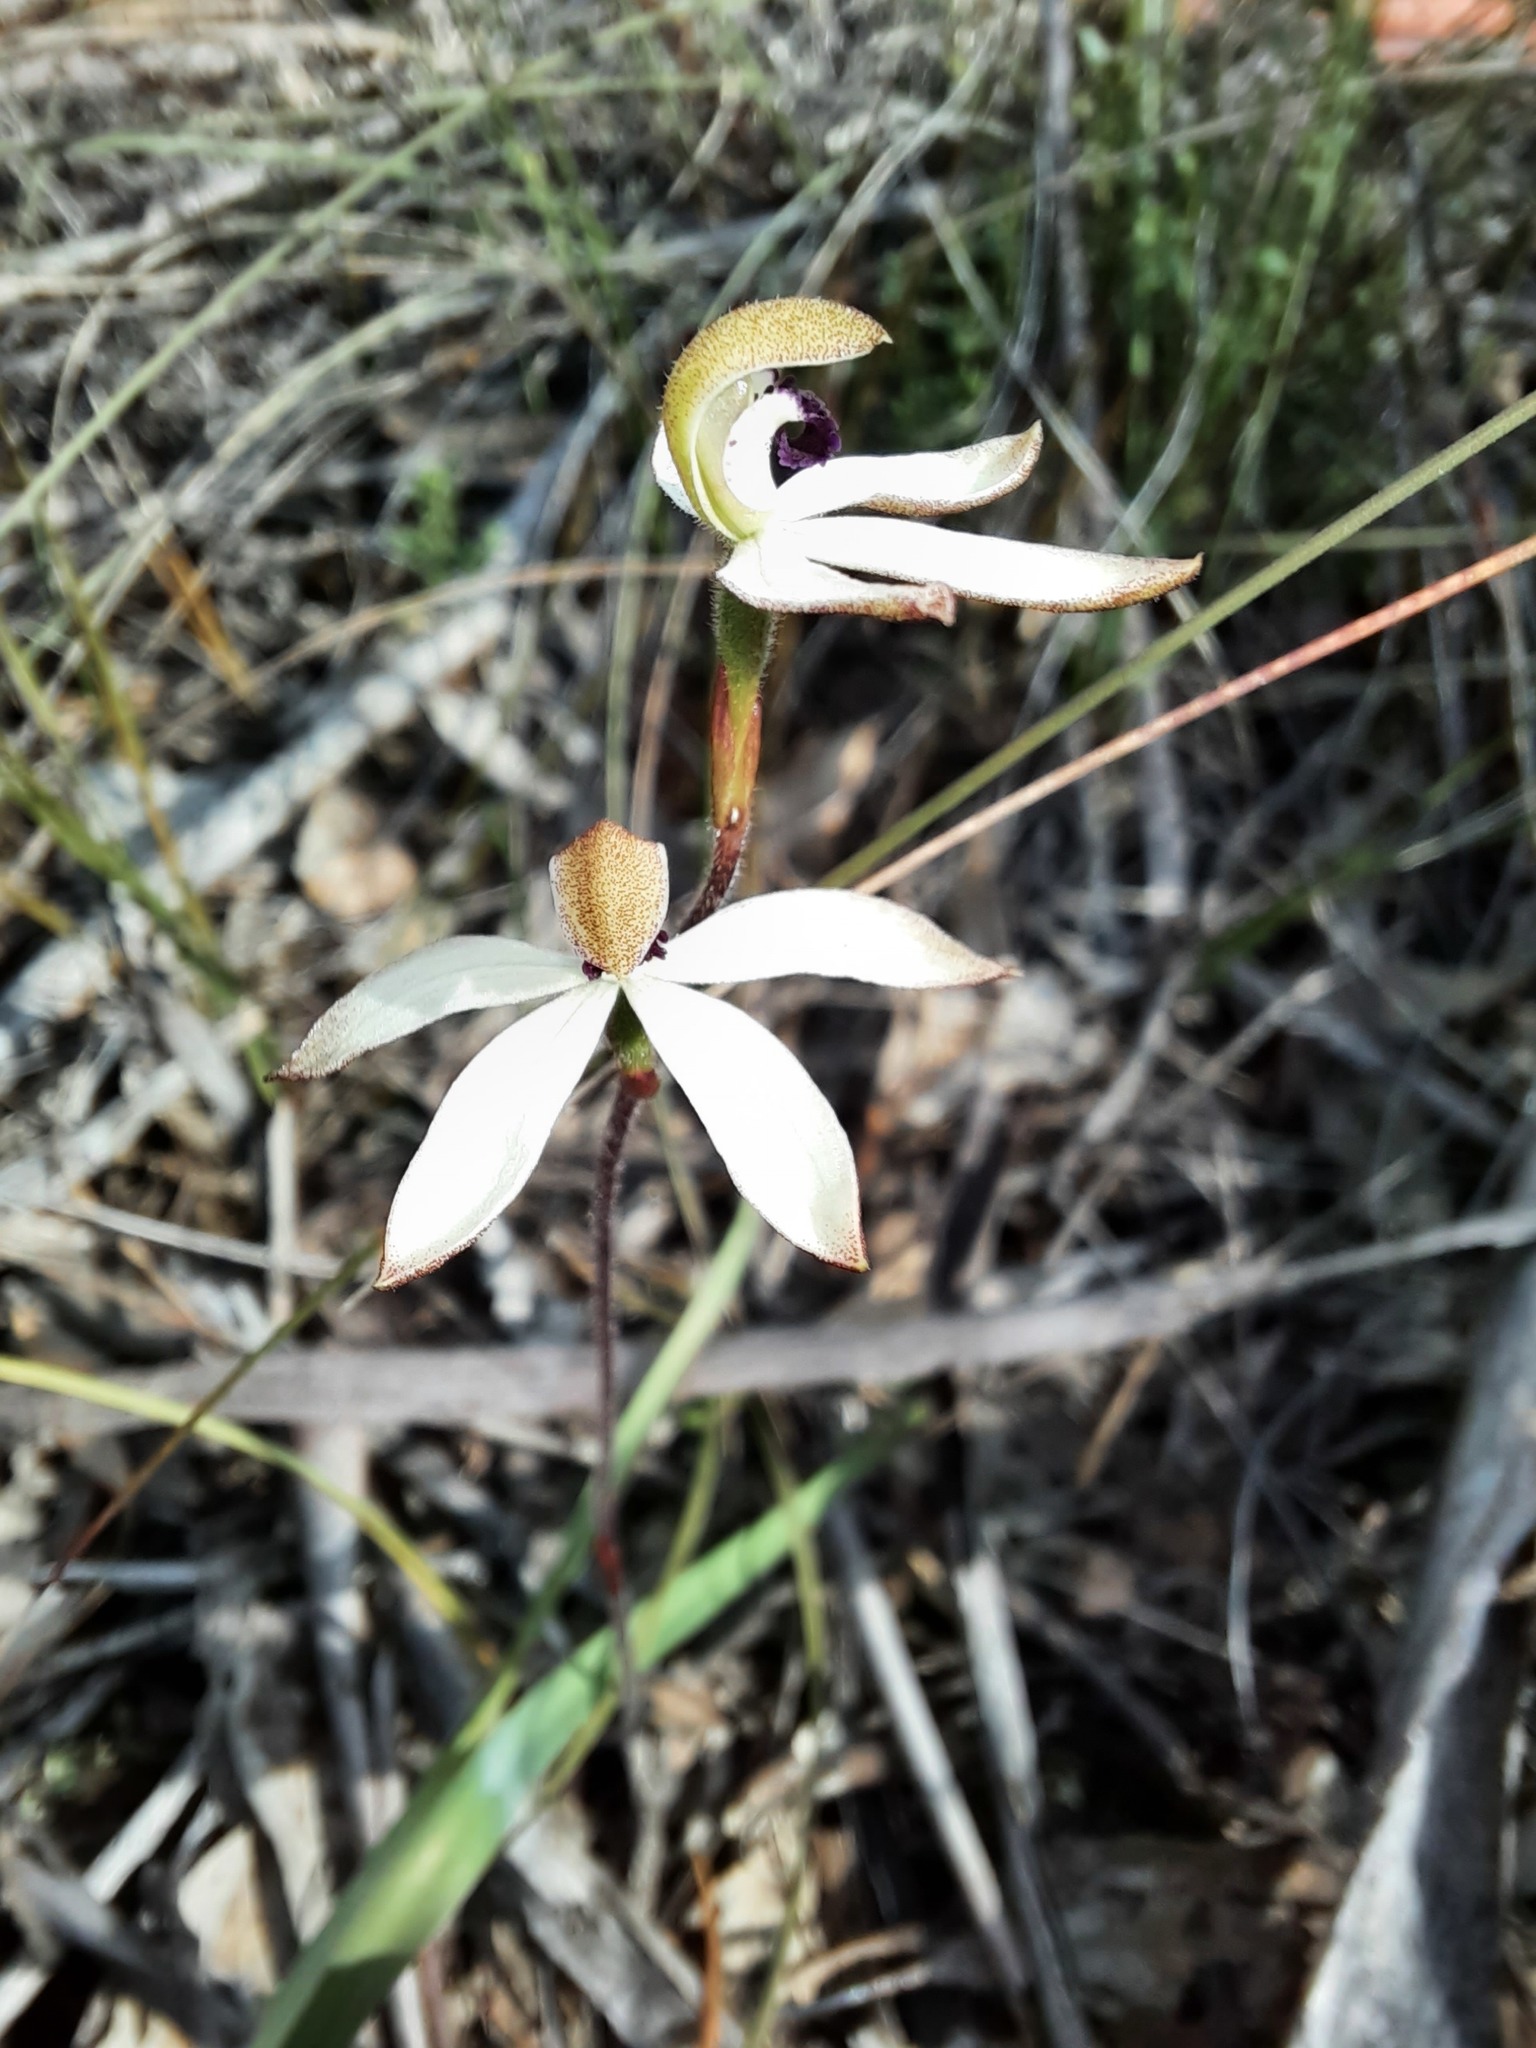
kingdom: Plantae
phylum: Tracheophyta
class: Liliopsida
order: Asparagales
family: Orchidaceae
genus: Caladenia
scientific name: Caladenia cucullata
